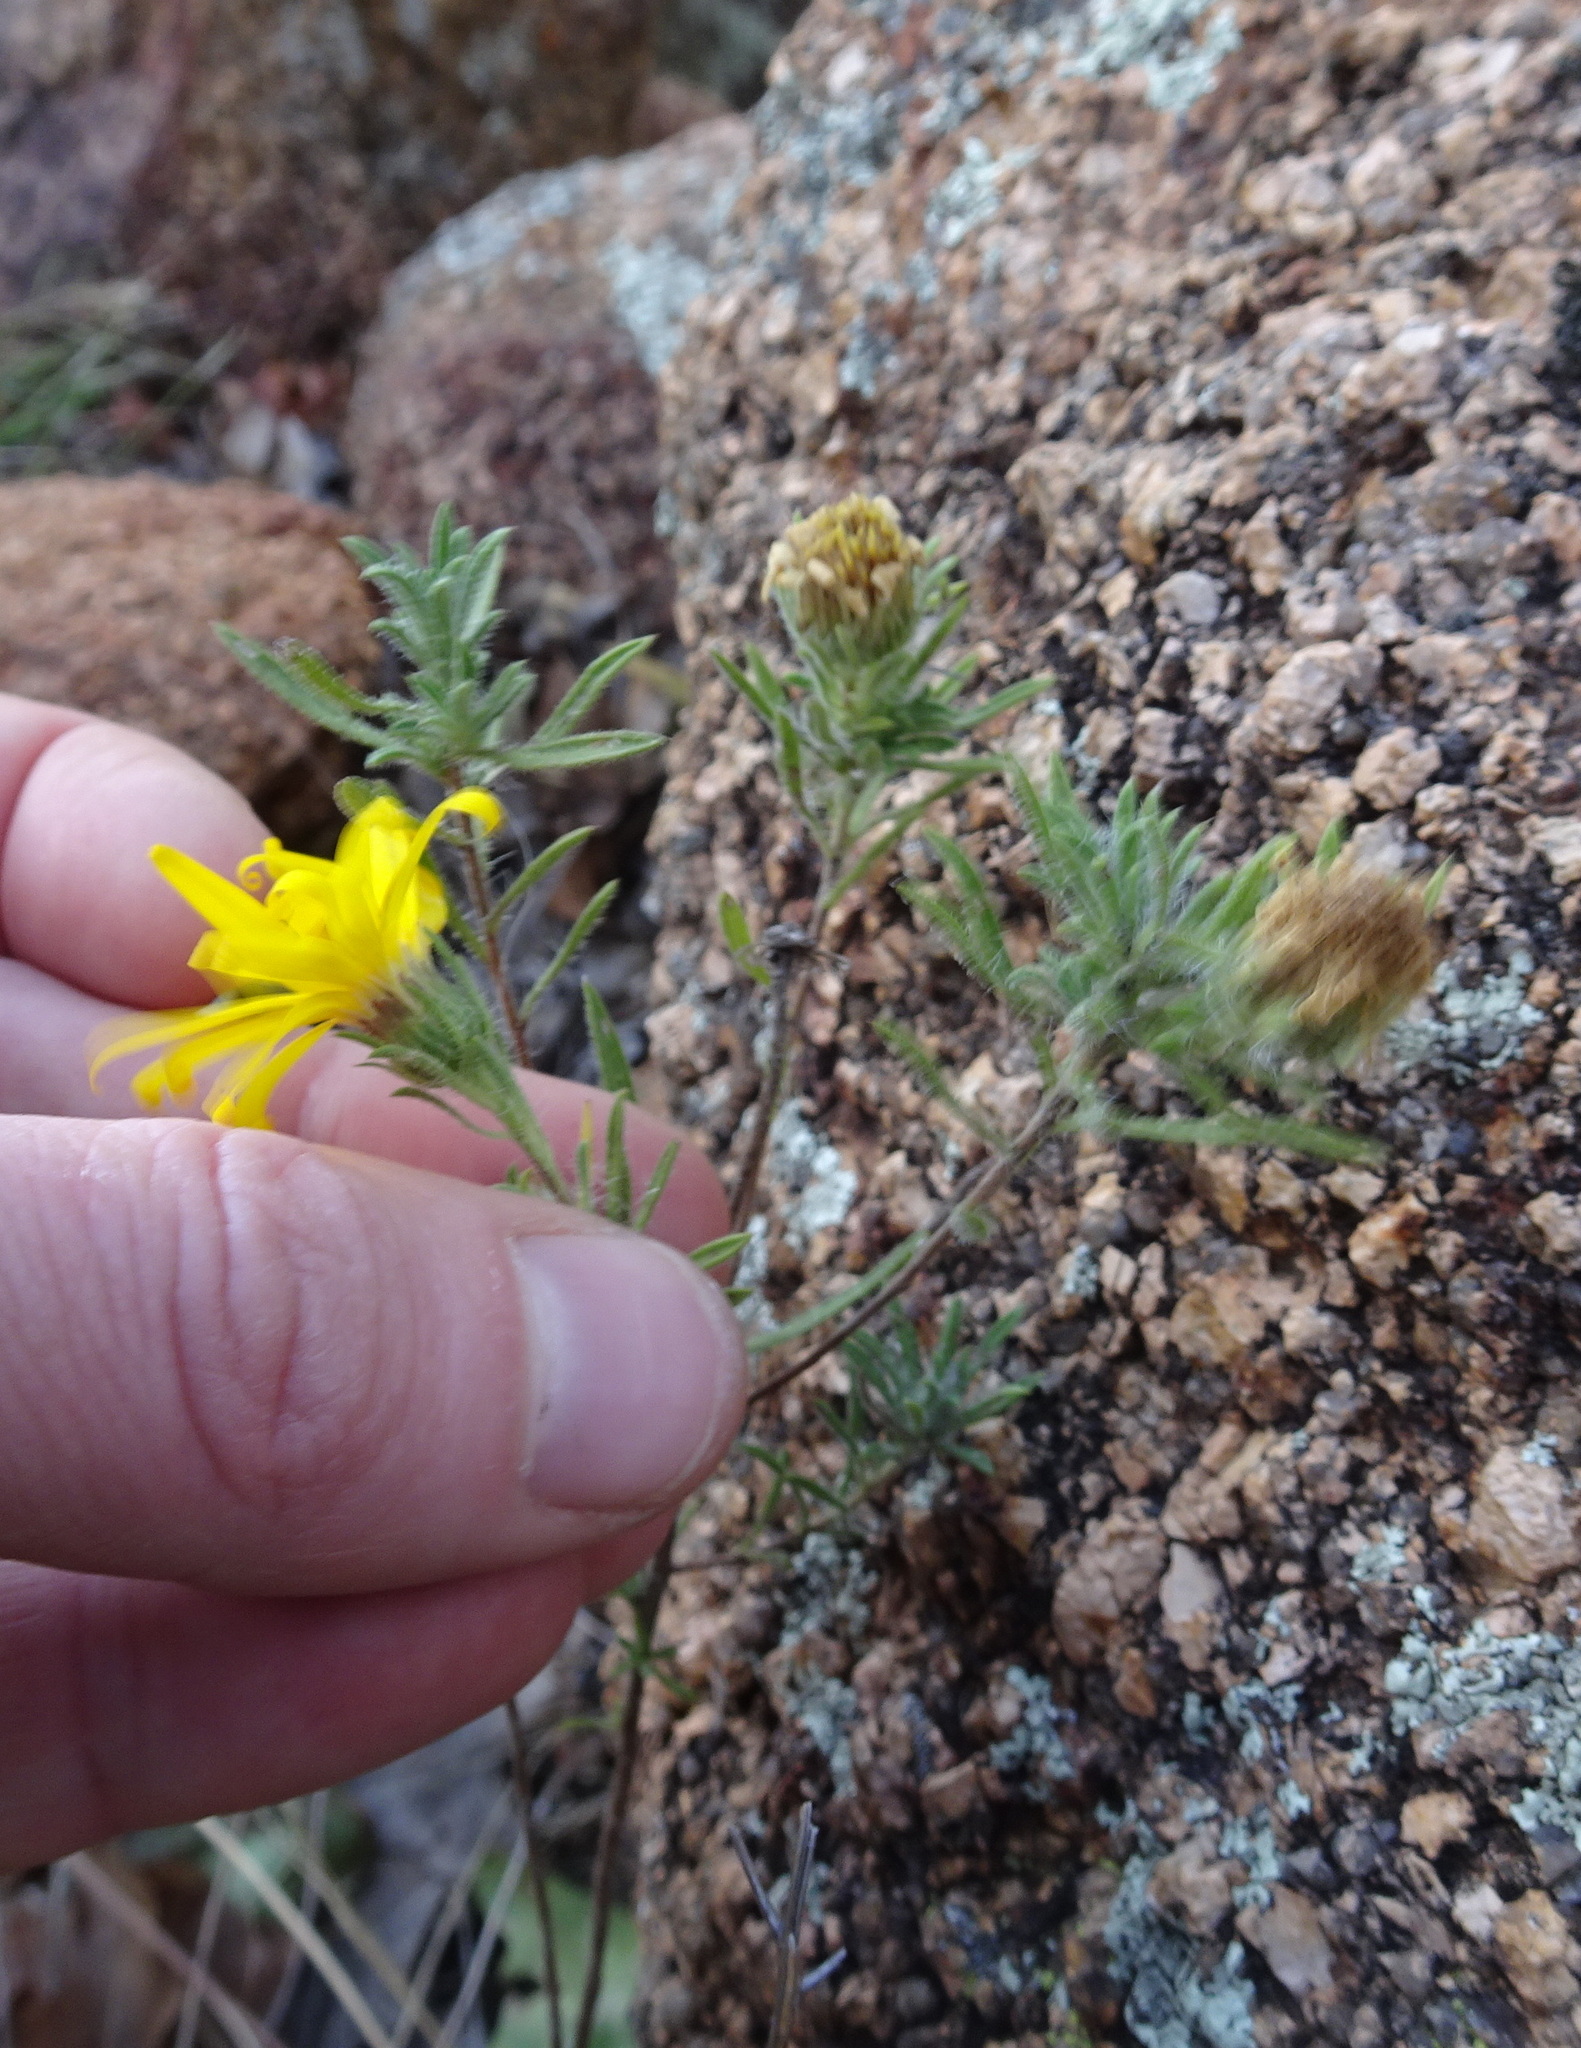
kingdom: Plantae
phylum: Tracheophyta
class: Magnoliopsida
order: Asterales
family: Asteraceae
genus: Heterotheca
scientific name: Heterotheca stenophylla
